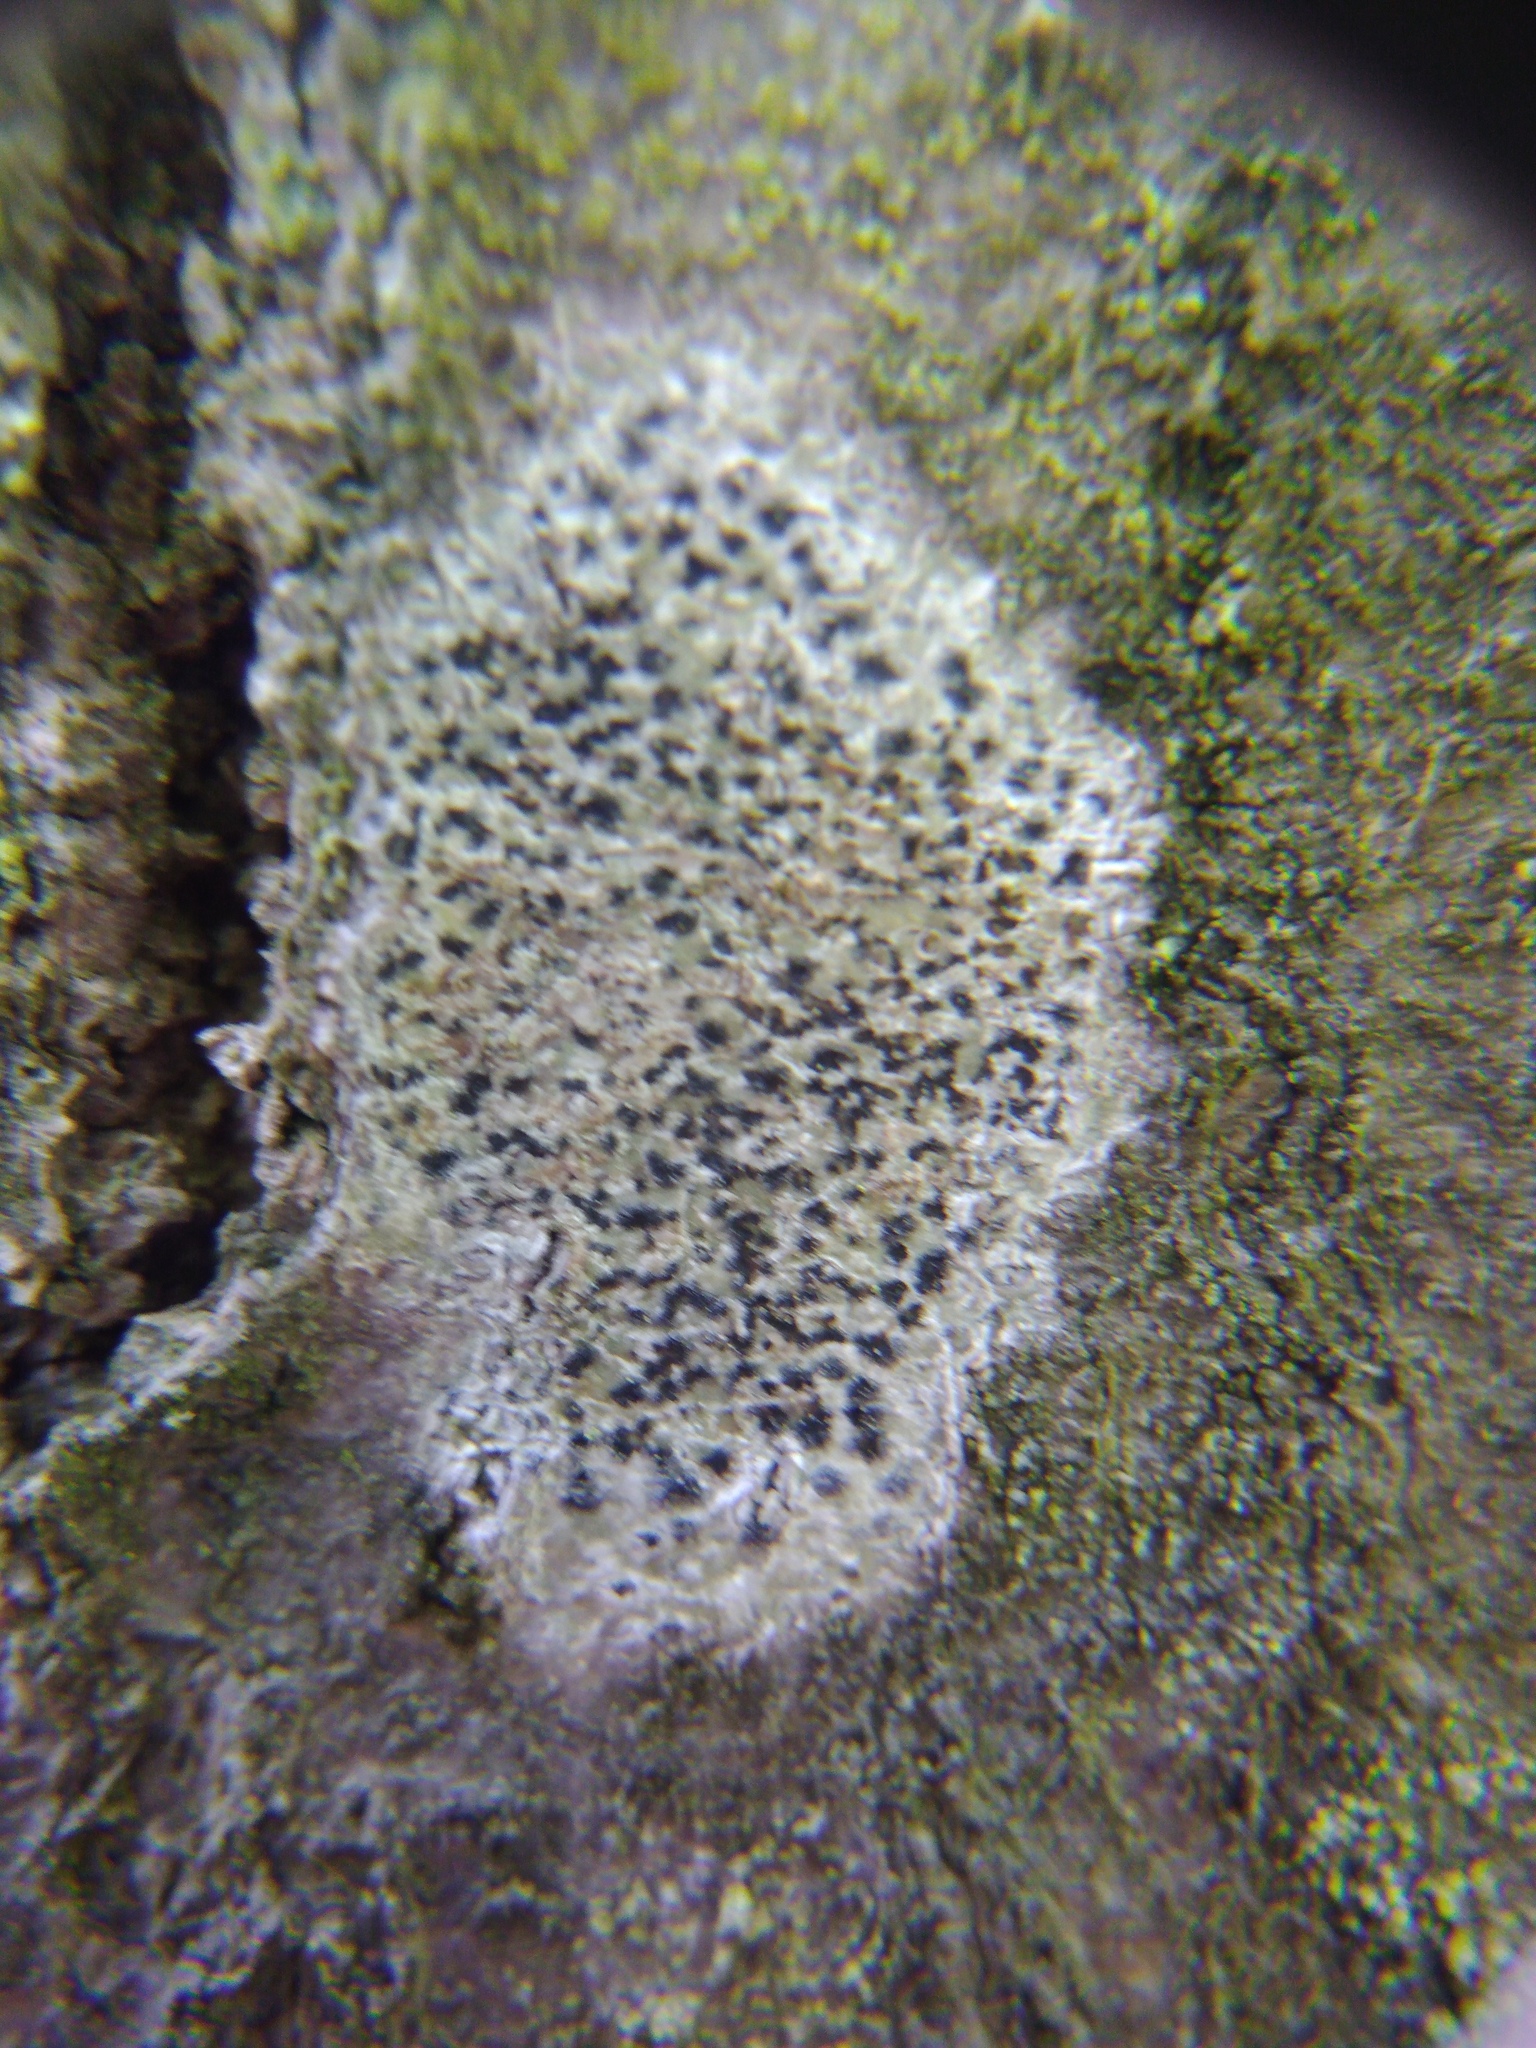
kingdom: Fungi
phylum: Ascomycota
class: Arthoniomycetes
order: Arthoniales
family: Arthoniaceae
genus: Arthonia
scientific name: Arthonia radiata
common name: Asterisk lichen
